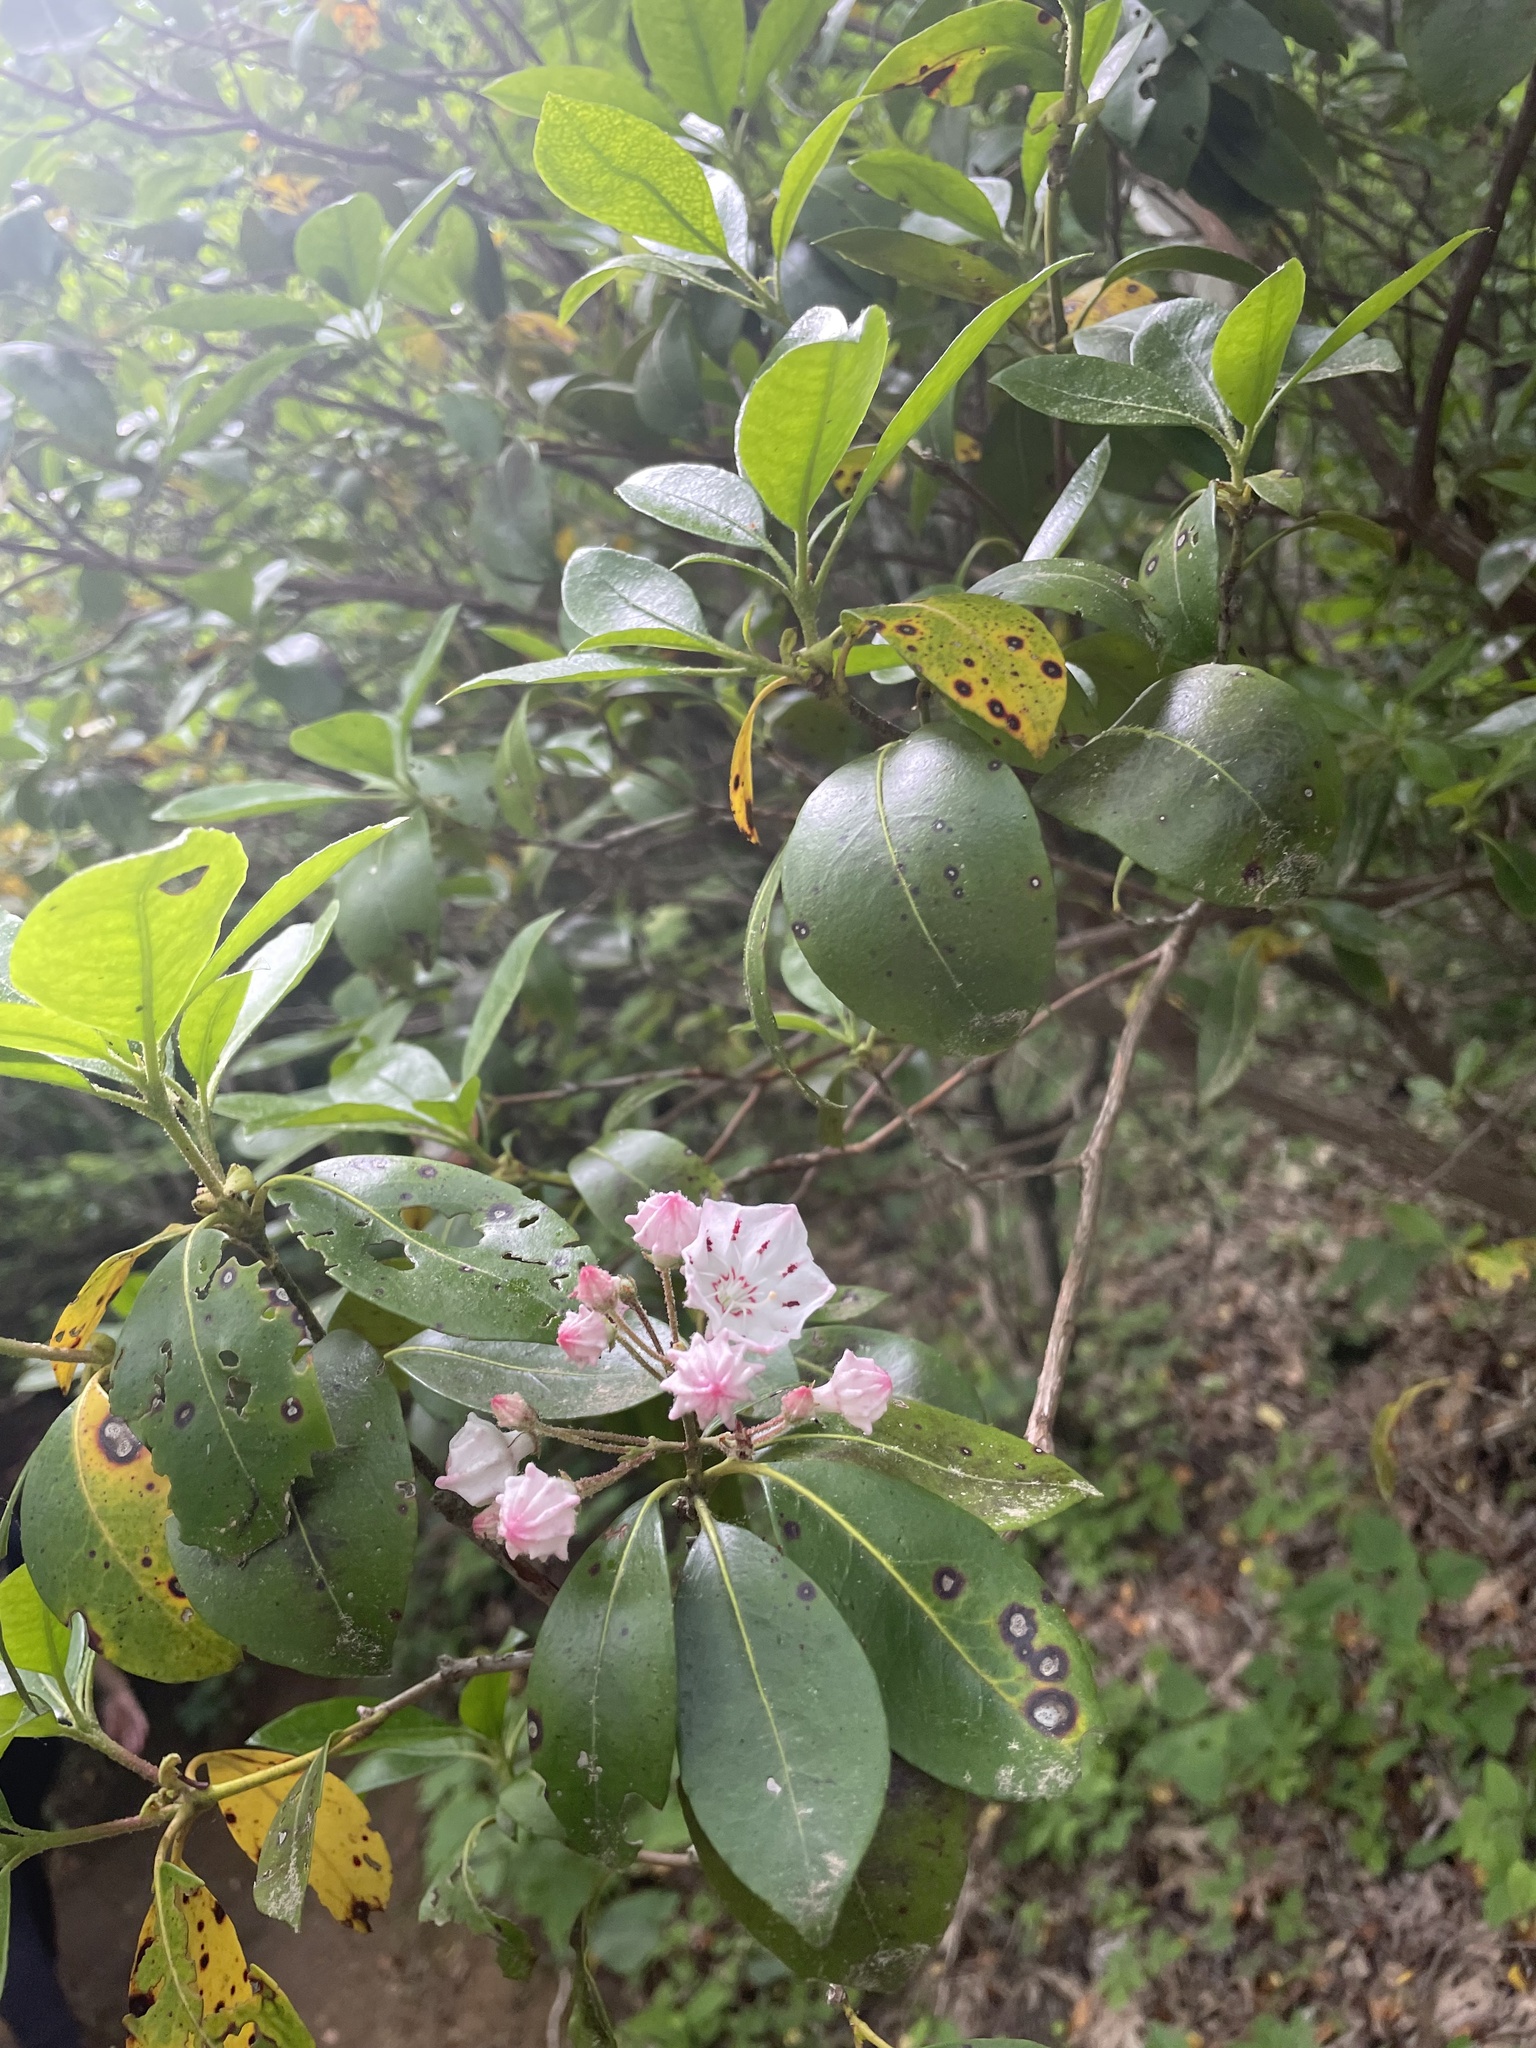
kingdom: Plantae
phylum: Tracheophyta
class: Magnoliopsida
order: Ericales
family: Ericaceae
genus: Kalmia
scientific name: Kalmia latifolia
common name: Mountain-laurel
